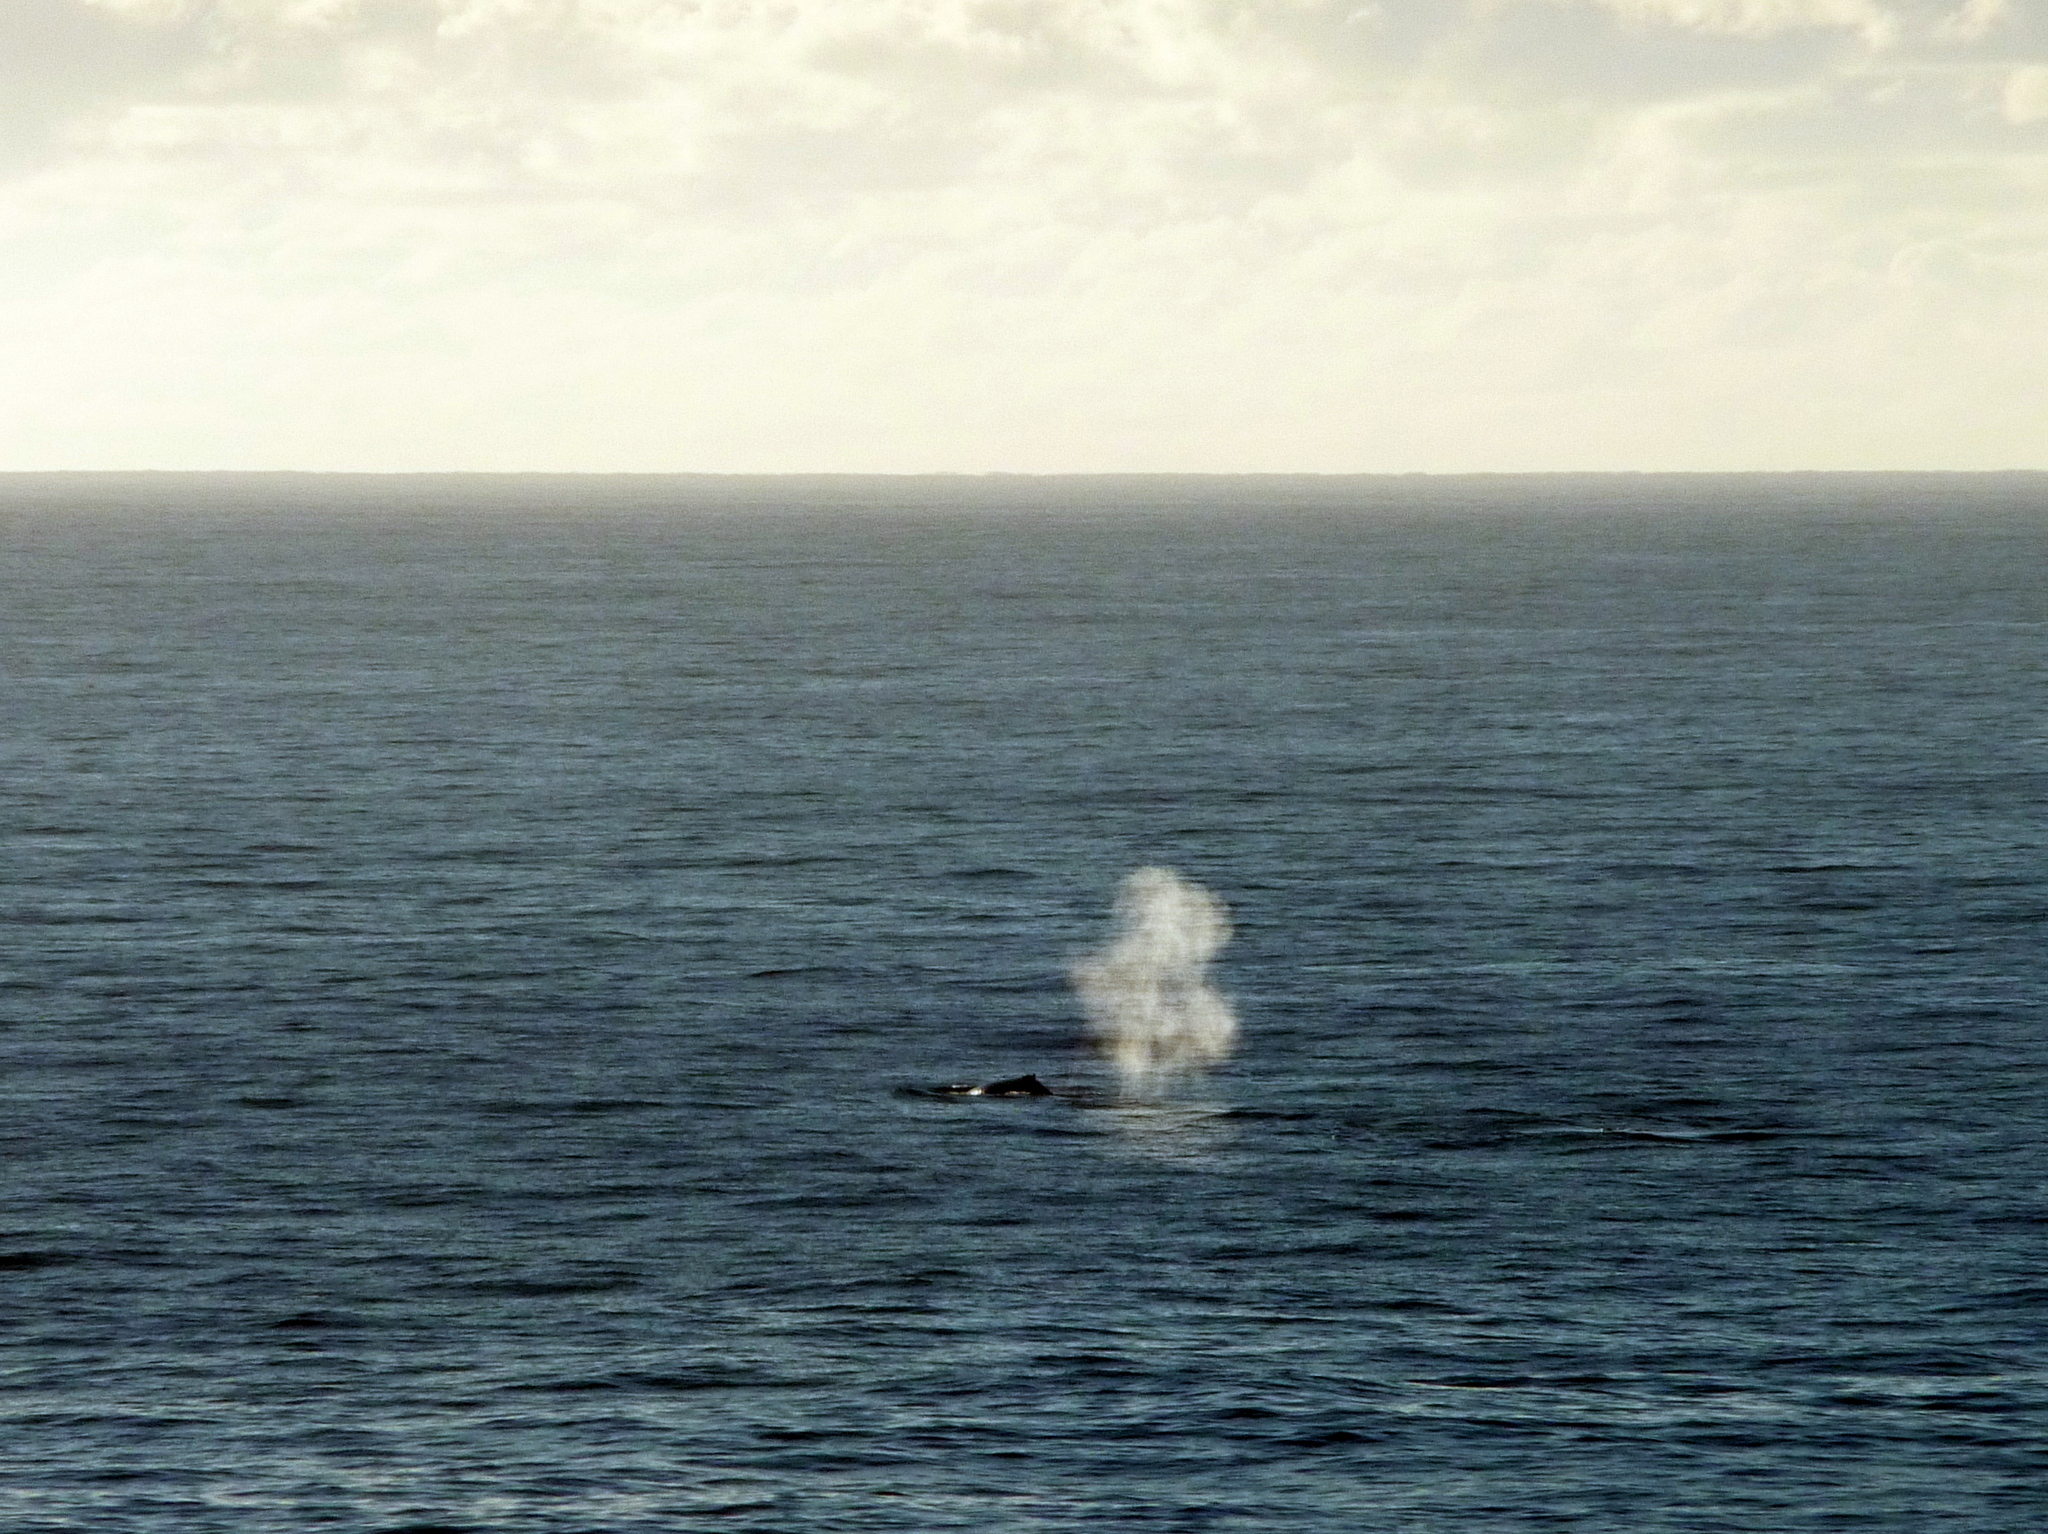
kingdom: Animalia
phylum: Chordata
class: Mammalia
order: Cetacea
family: Balaenopteridae
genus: Megaptera
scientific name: Megaptera novaeangliae
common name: Humpback whale
